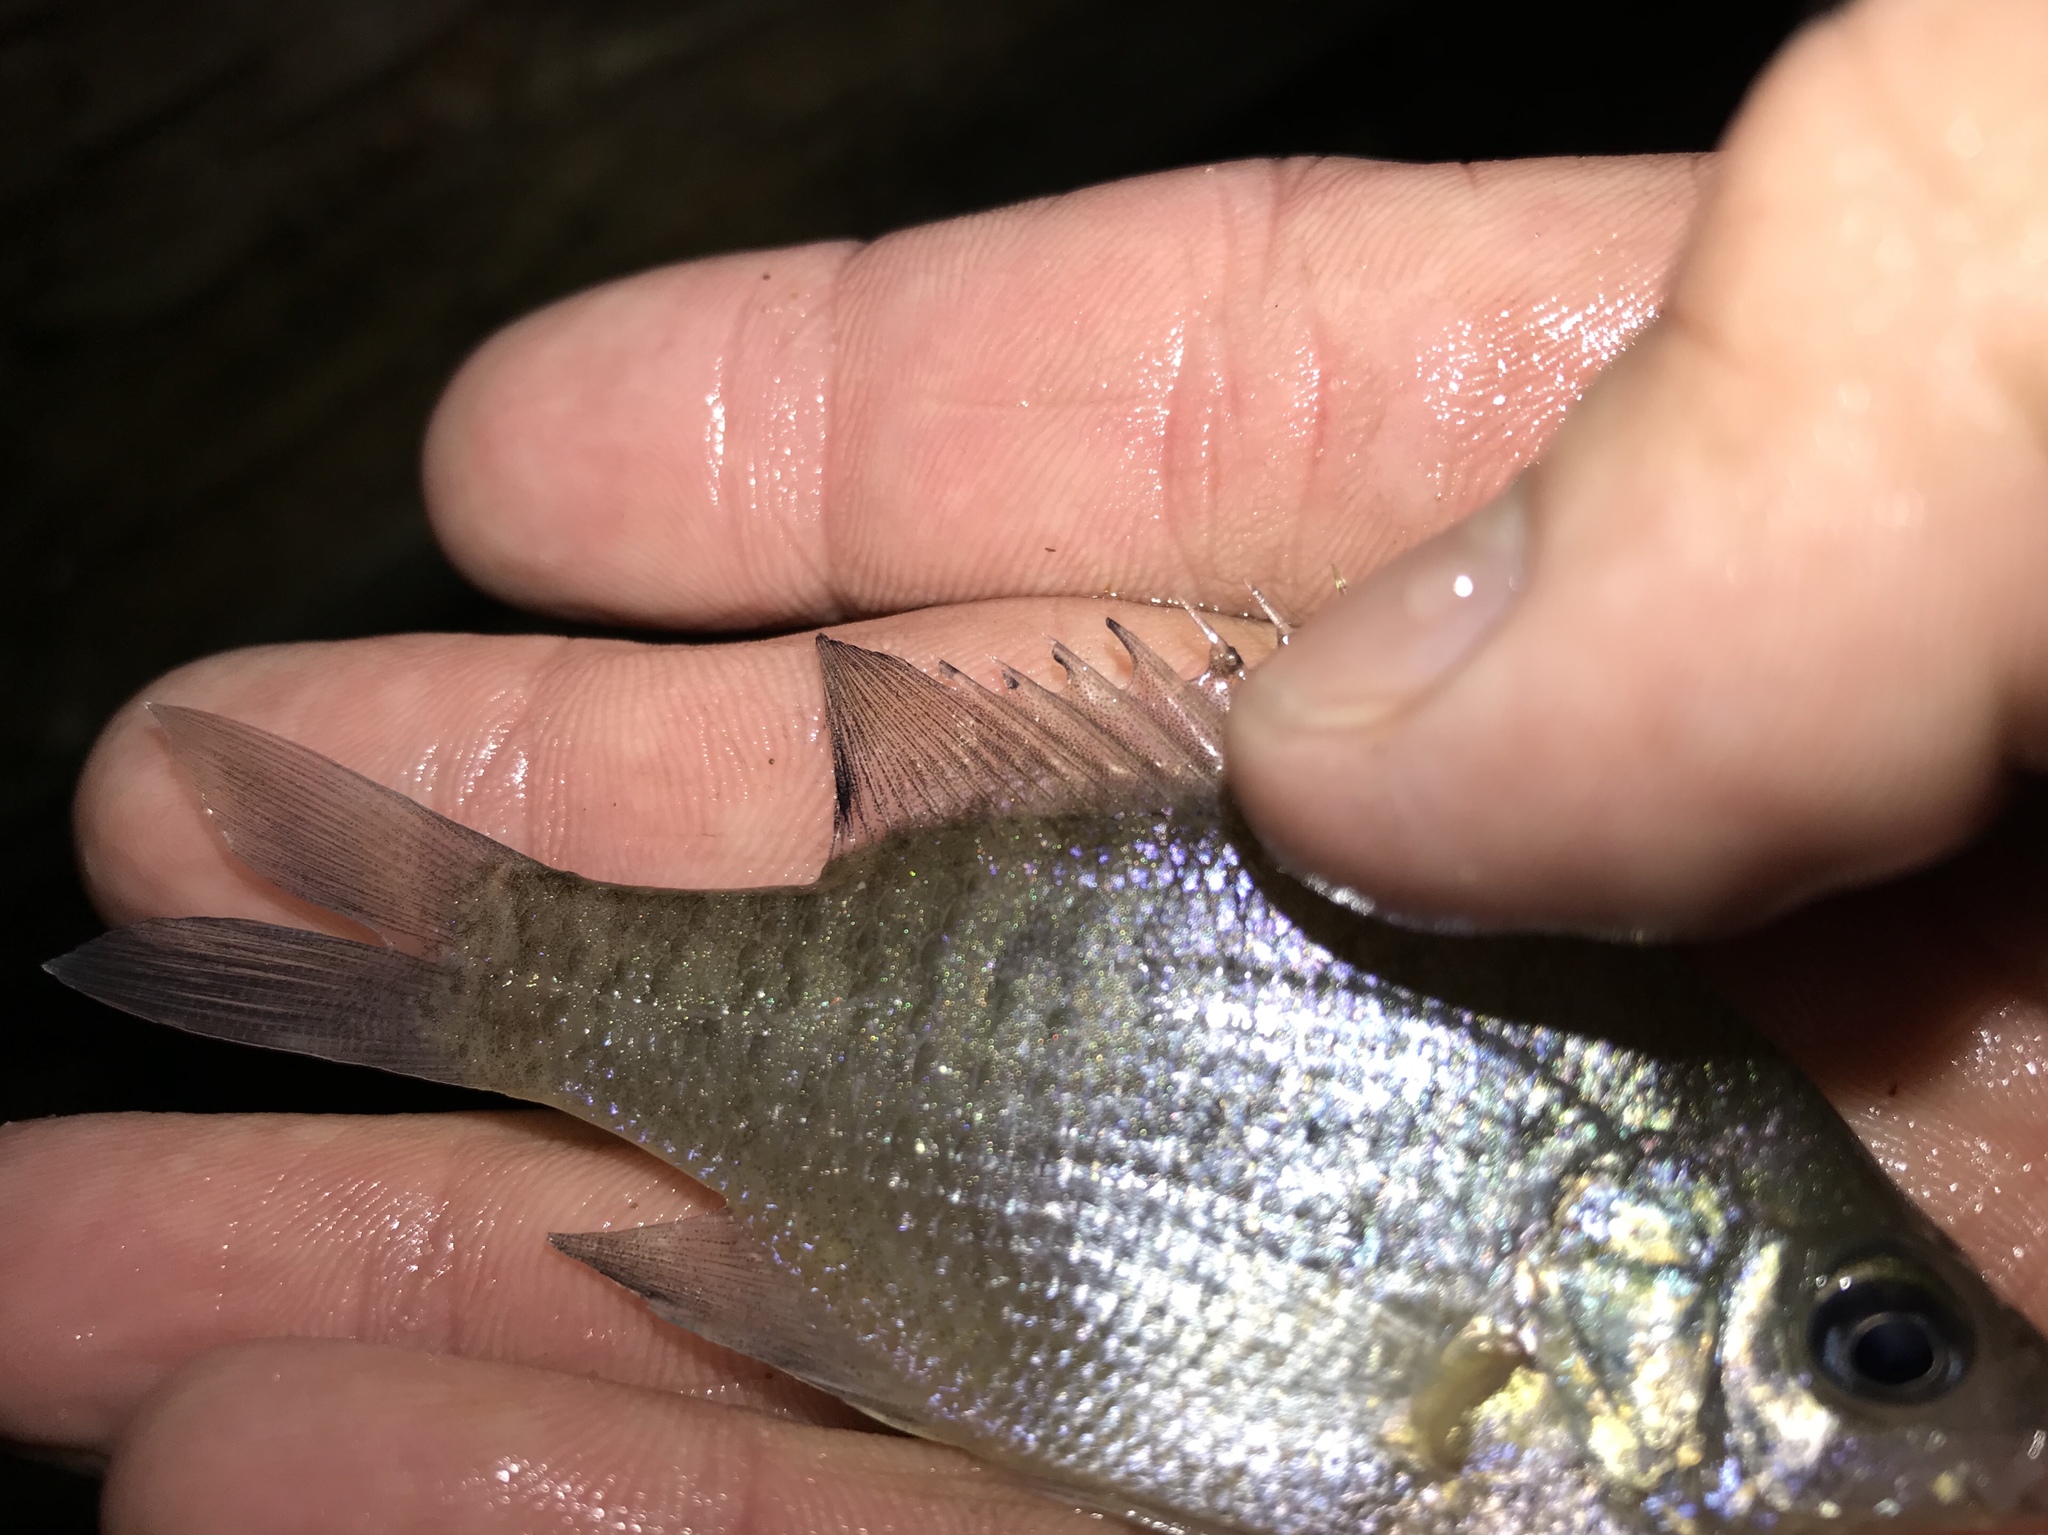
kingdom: Animalia
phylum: Chordata
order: Perciformes
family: Centrarchidae
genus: Lepomis
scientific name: Lepomis macrochirus
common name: Bluegill
